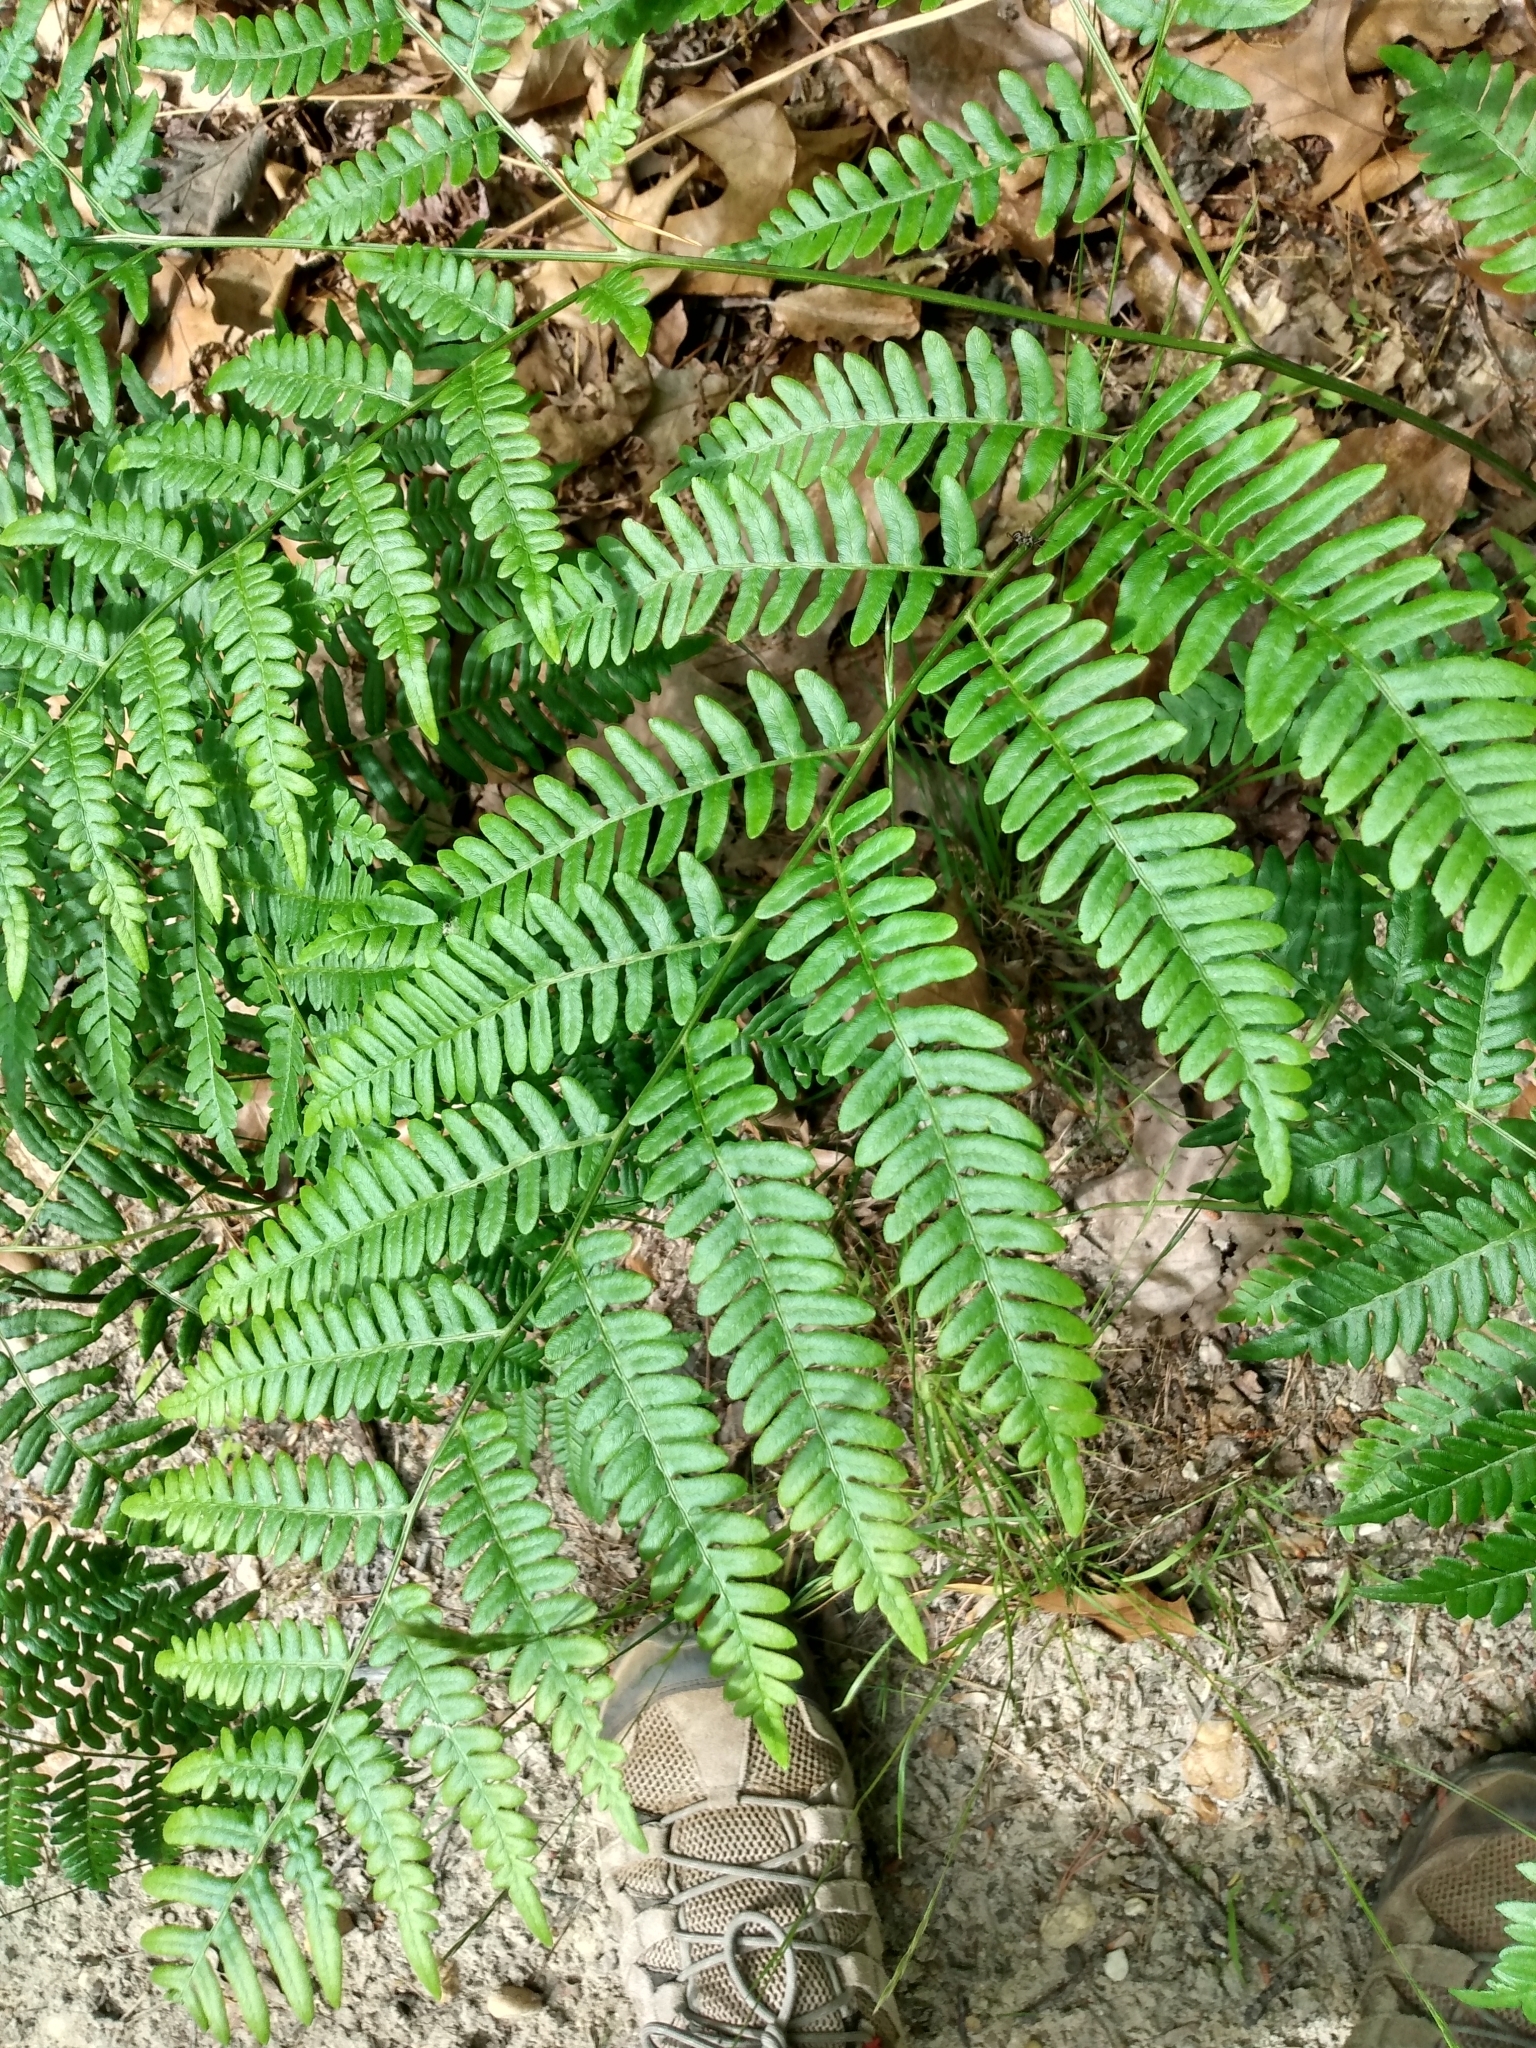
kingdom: Plantae
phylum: Tracheophyta
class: Polypodiopsida
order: Polypodiales
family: Dennstaedtiaceae
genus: Pteridium
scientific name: Pteridium aquilinum
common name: Bracken
